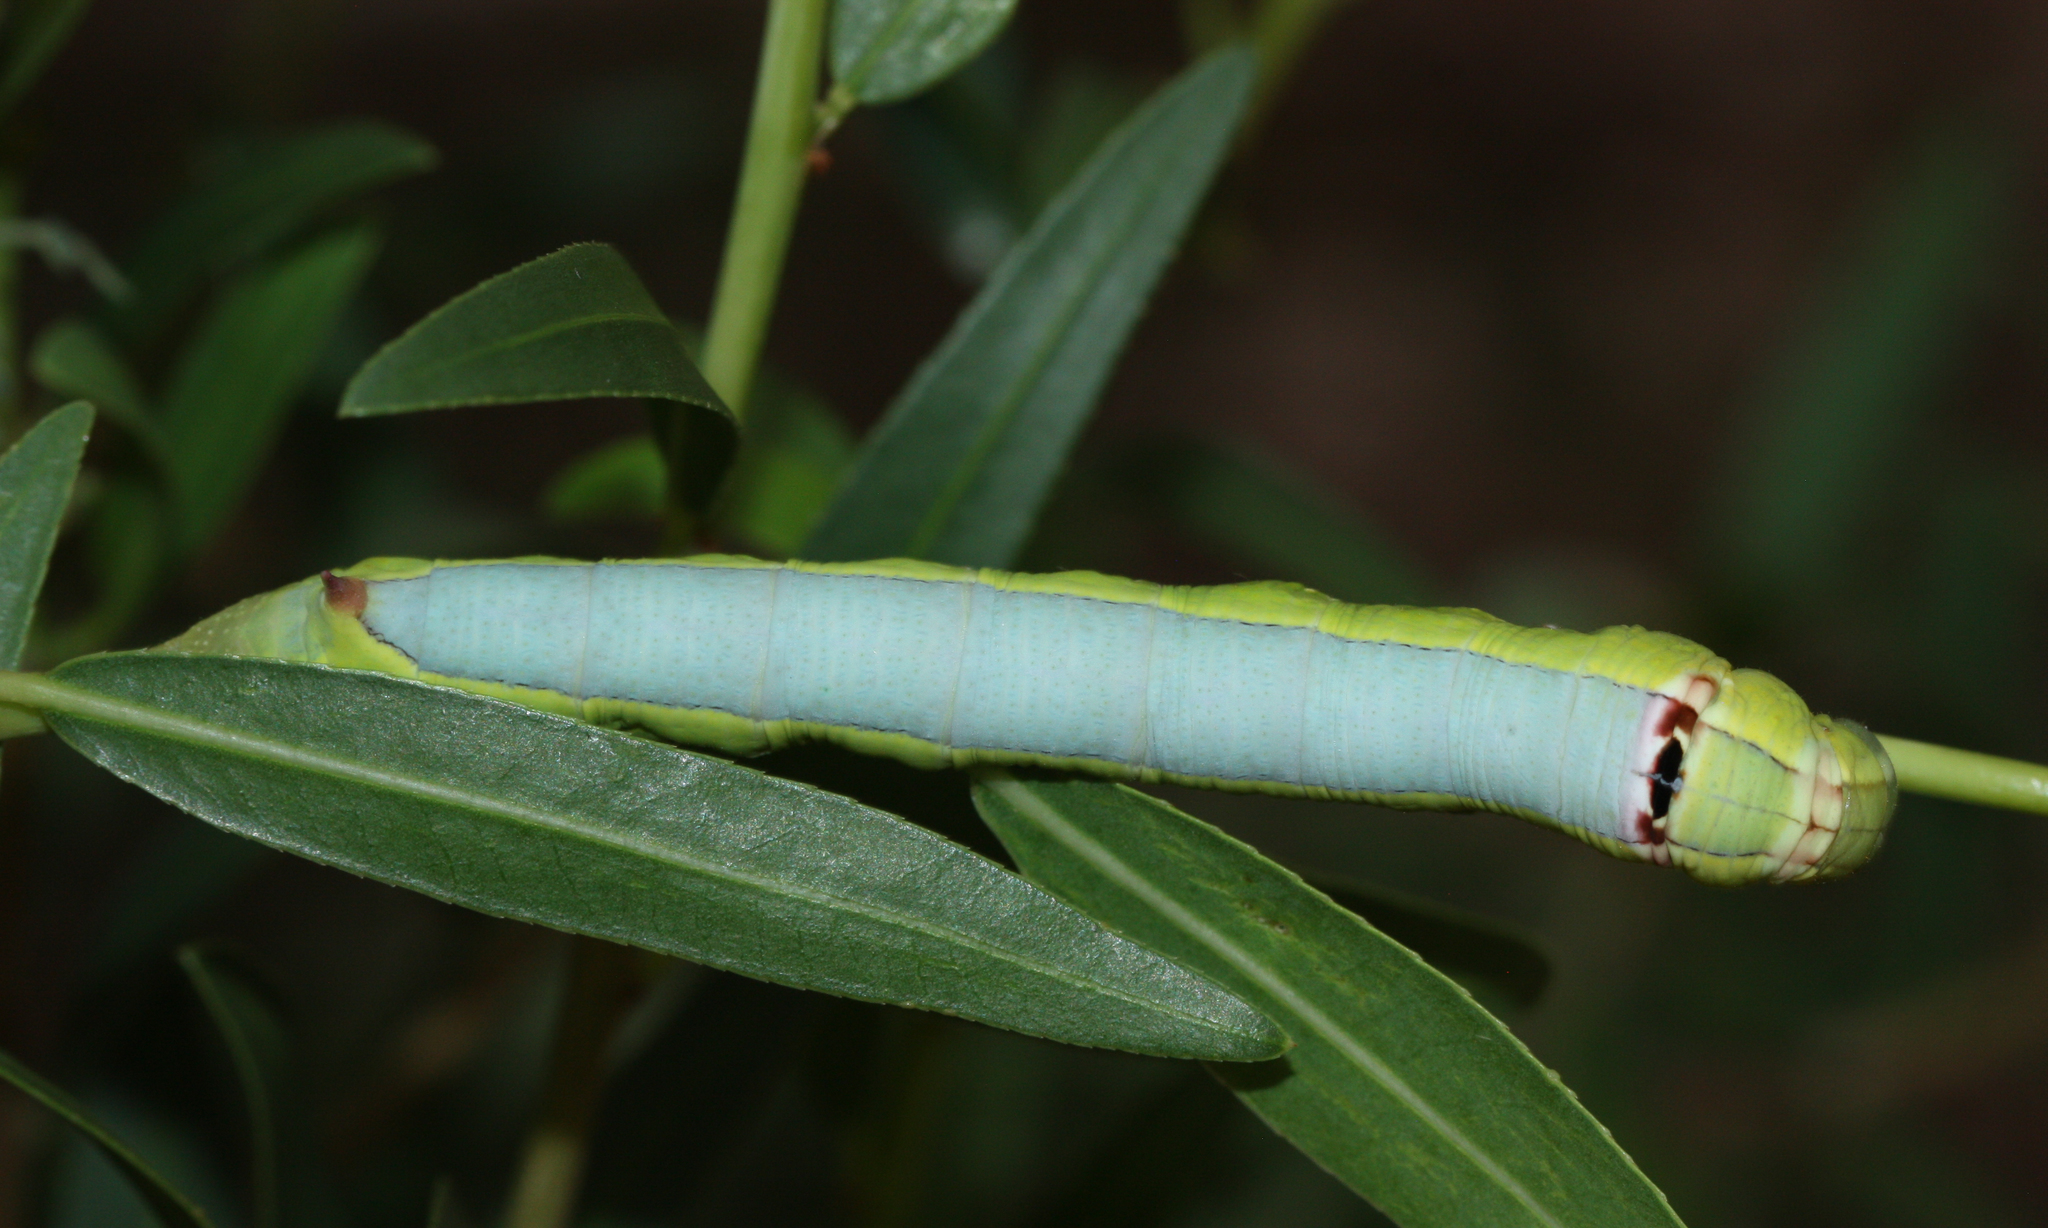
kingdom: Animalia
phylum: Arthropoda
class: Insecta
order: Lepidoptera
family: Sphingidae
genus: Erinnyis
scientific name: Erinnyis ello
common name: Ello sphinx
